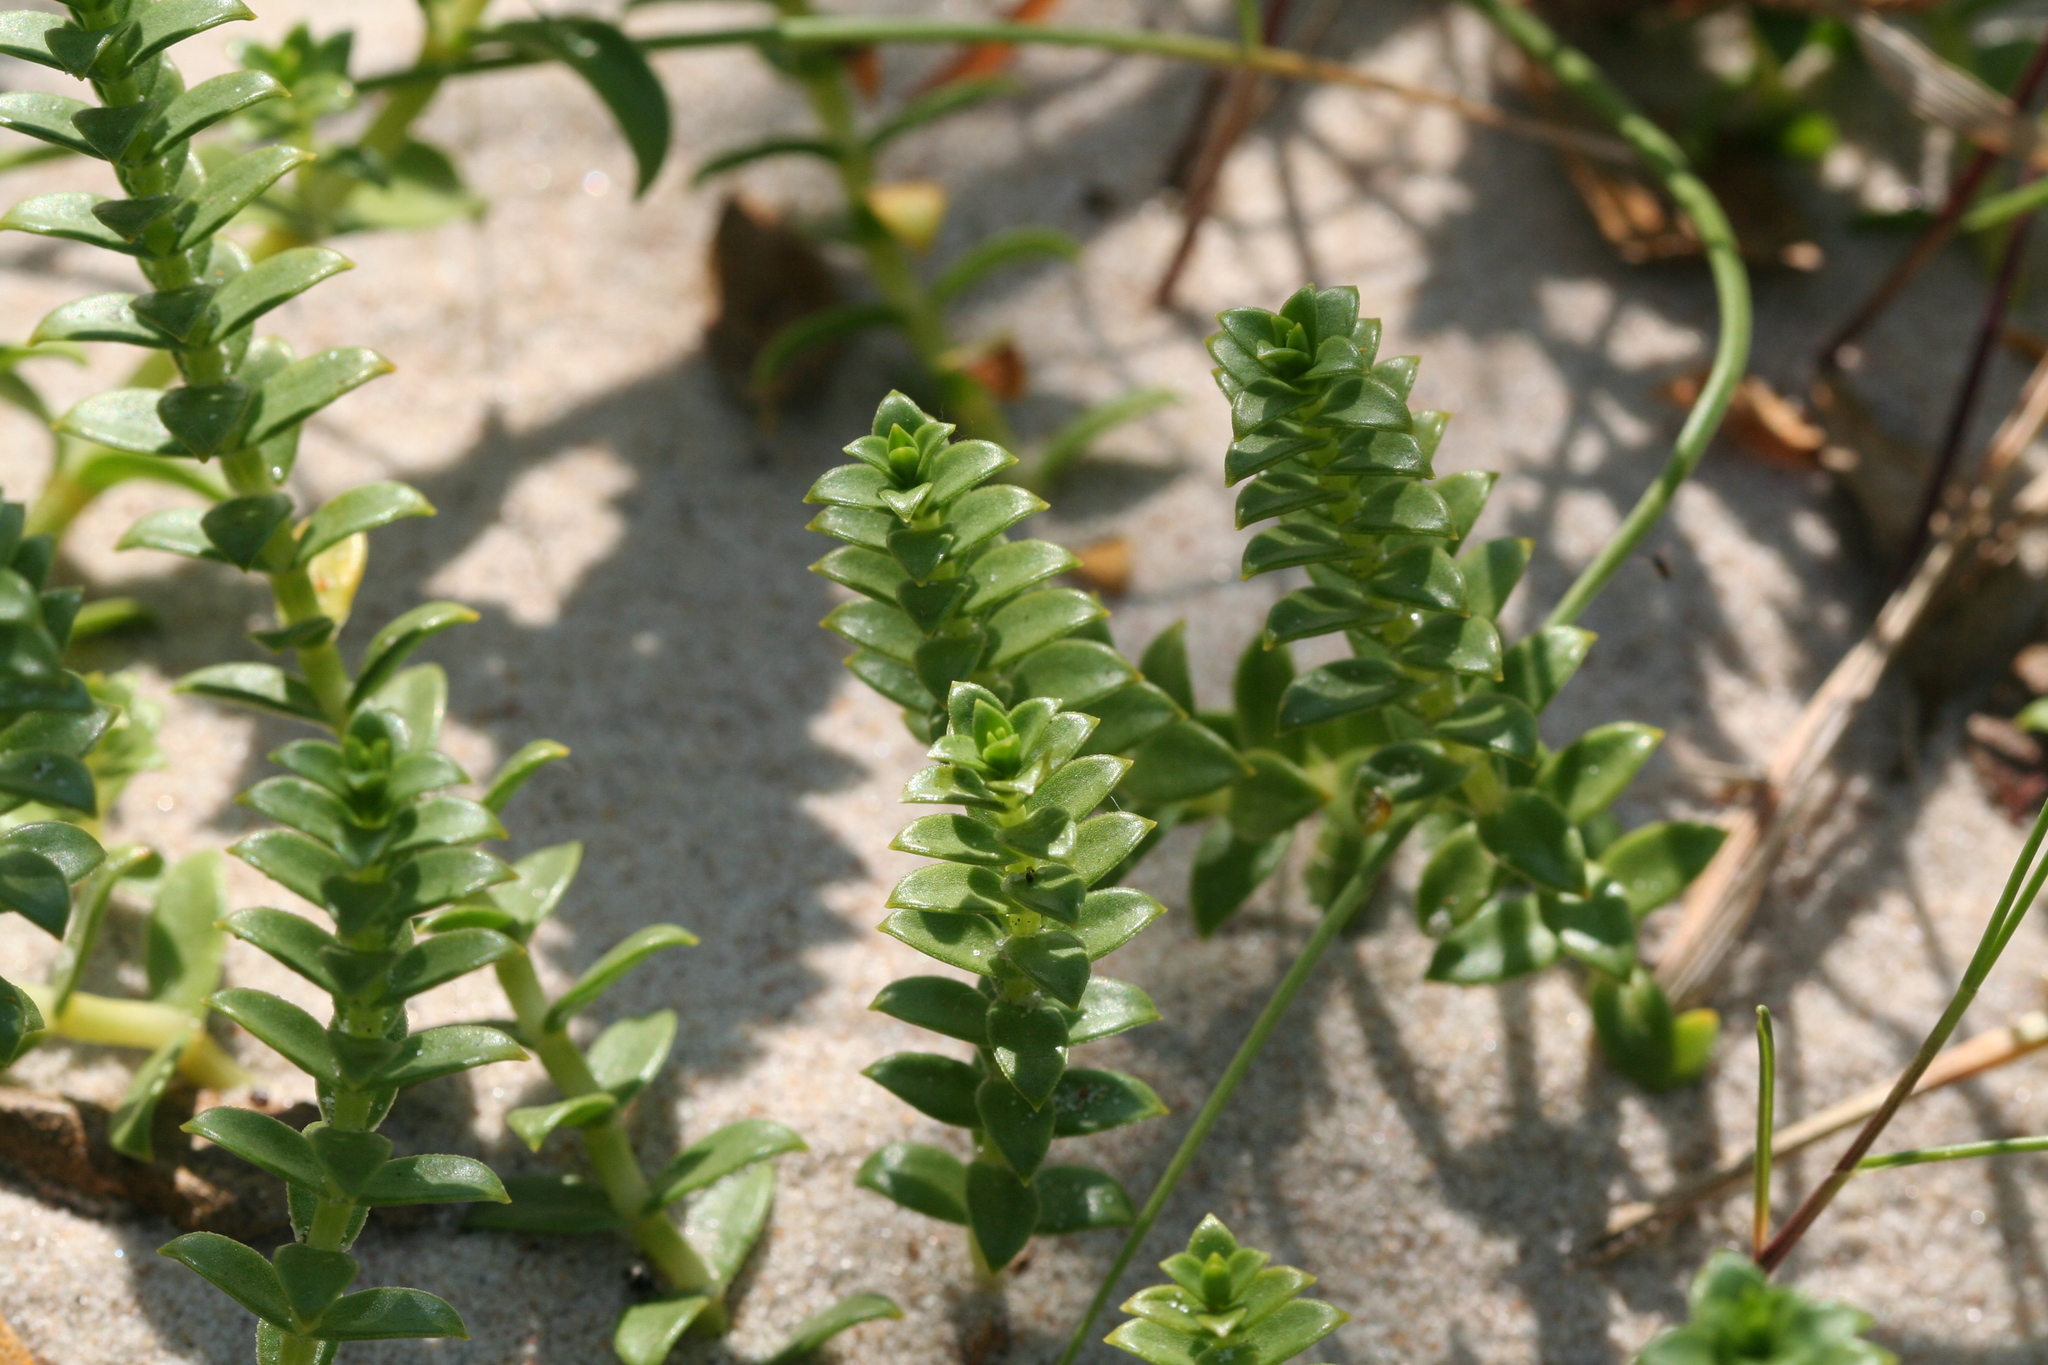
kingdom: Plantae
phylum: Tracheophyta
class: Magnoliopsida
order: Caryophyllales
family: Caryophyllaceae
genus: Honckenya
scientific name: Honckenya peploides
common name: Sea sandwort
